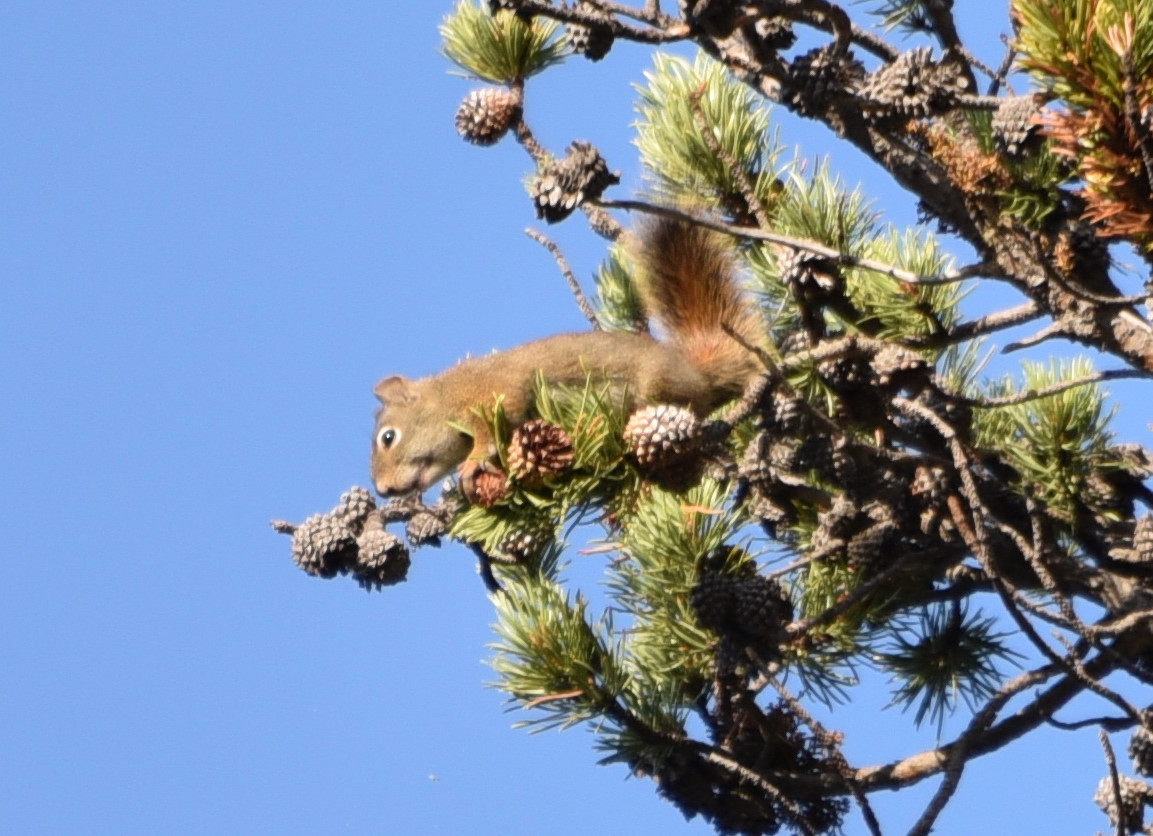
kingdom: Animalia
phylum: Chordata
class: Mammalia
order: Rodentia
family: Sciuridae
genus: Tamiasciurus
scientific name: Tamiasciurus hudsonicus
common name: Red squirrel
